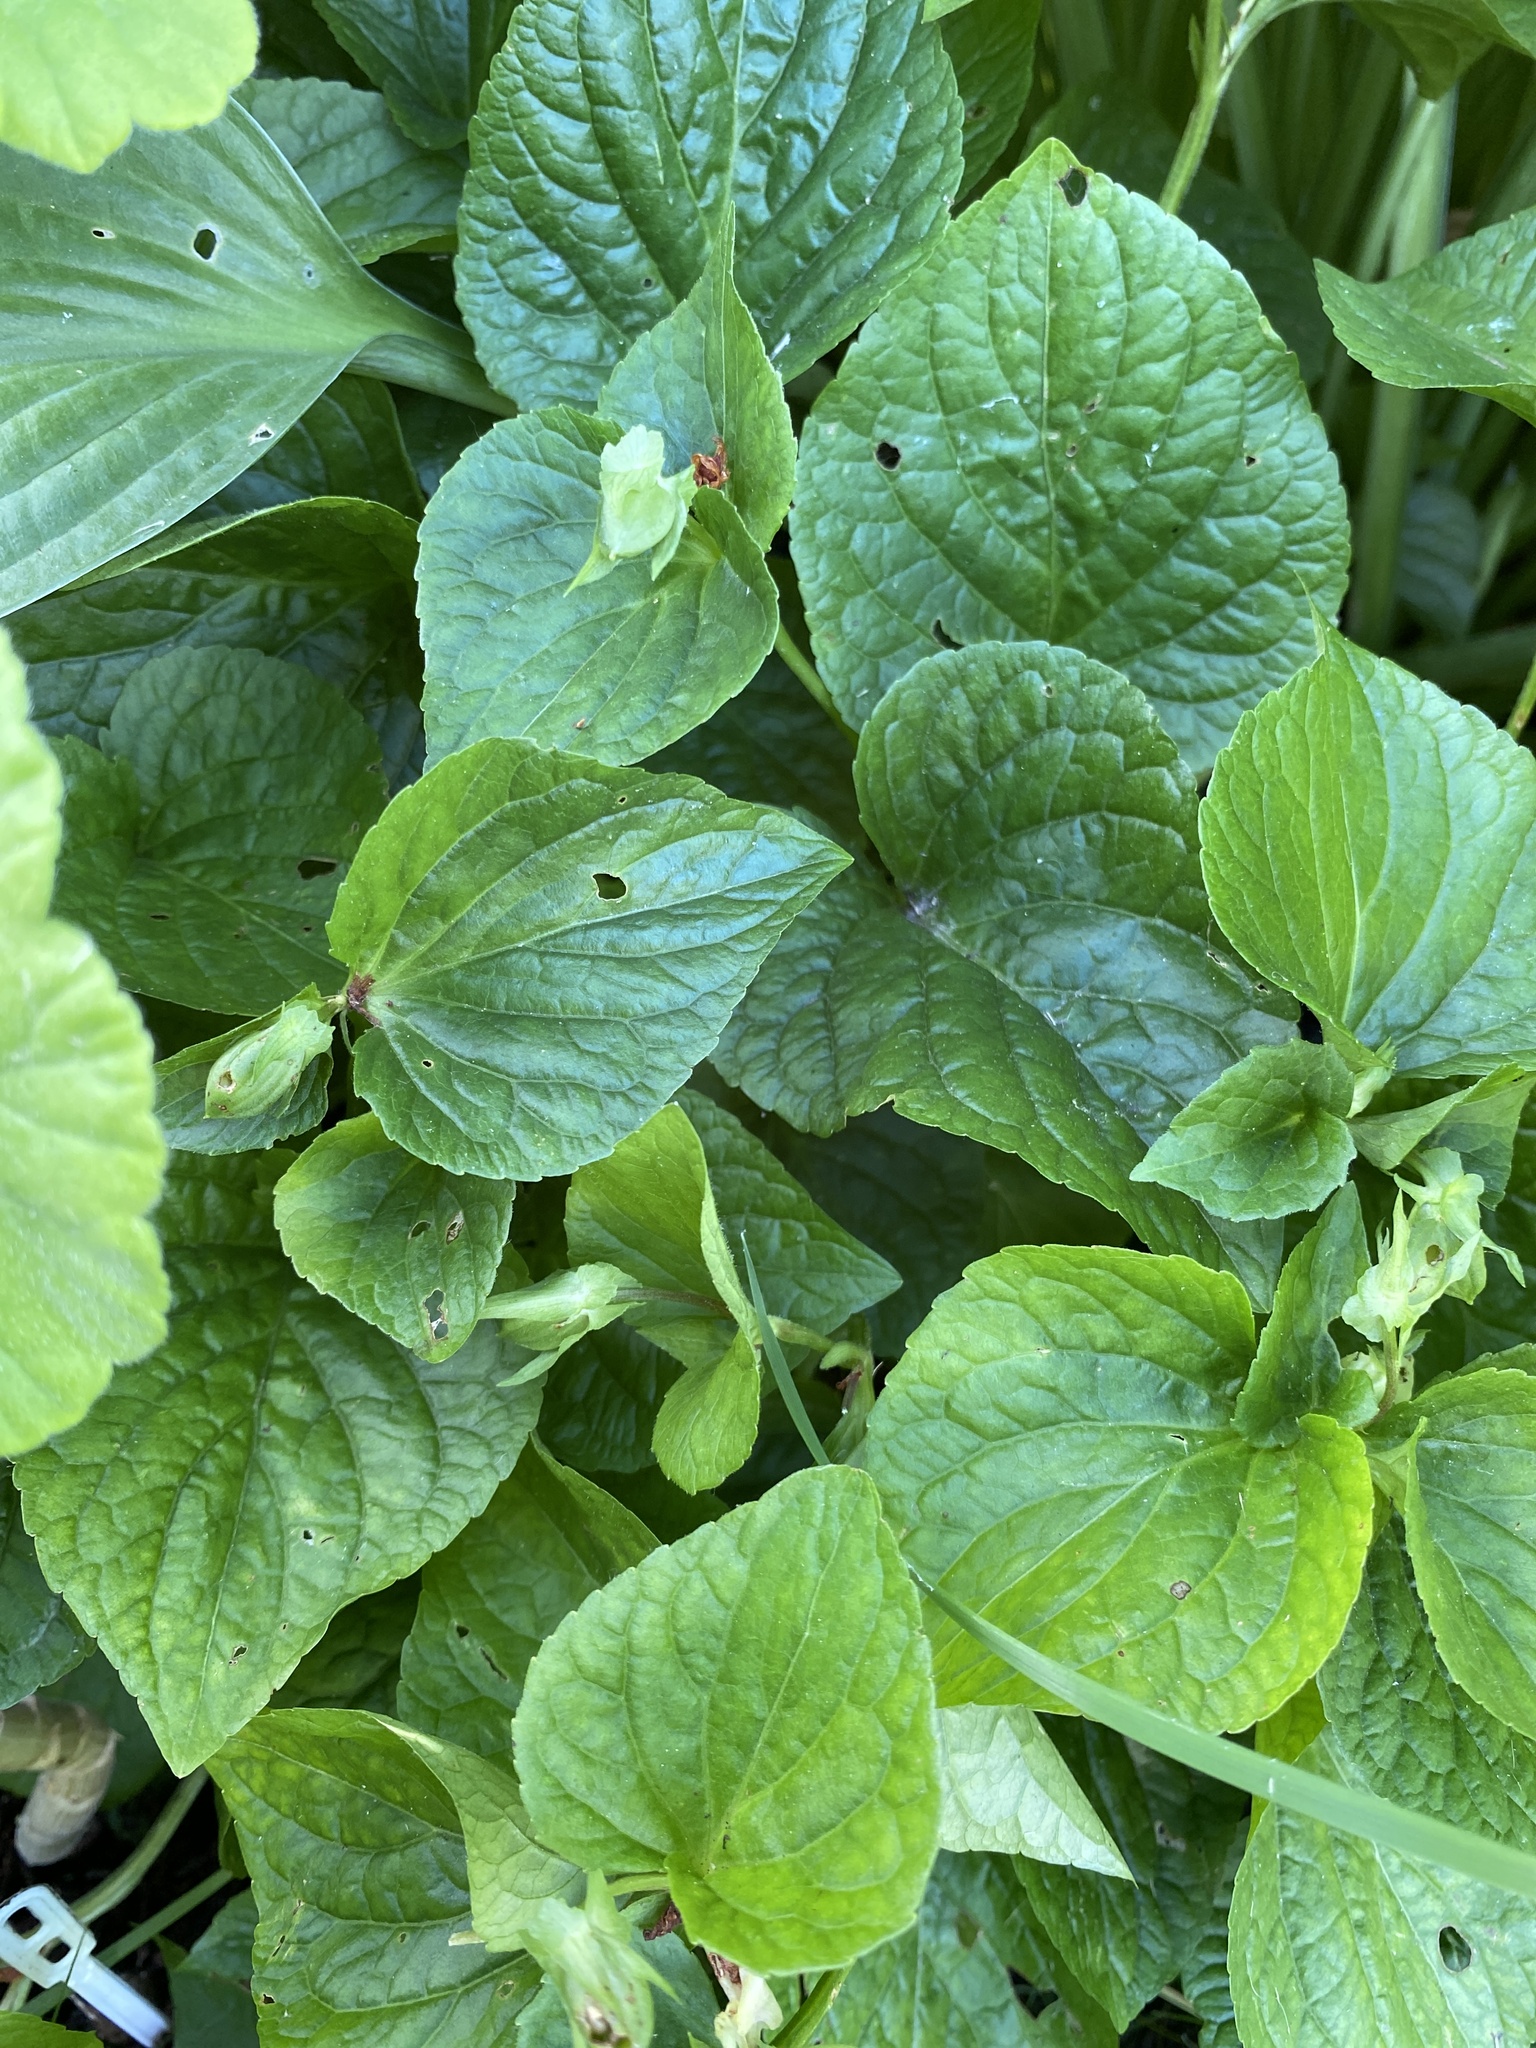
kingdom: Plantae
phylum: Tracheophyta
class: Magnoliopsida
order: Malpighiales
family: Violaceae
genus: Viola
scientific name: Viola mirabilis
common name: Wonder violet
